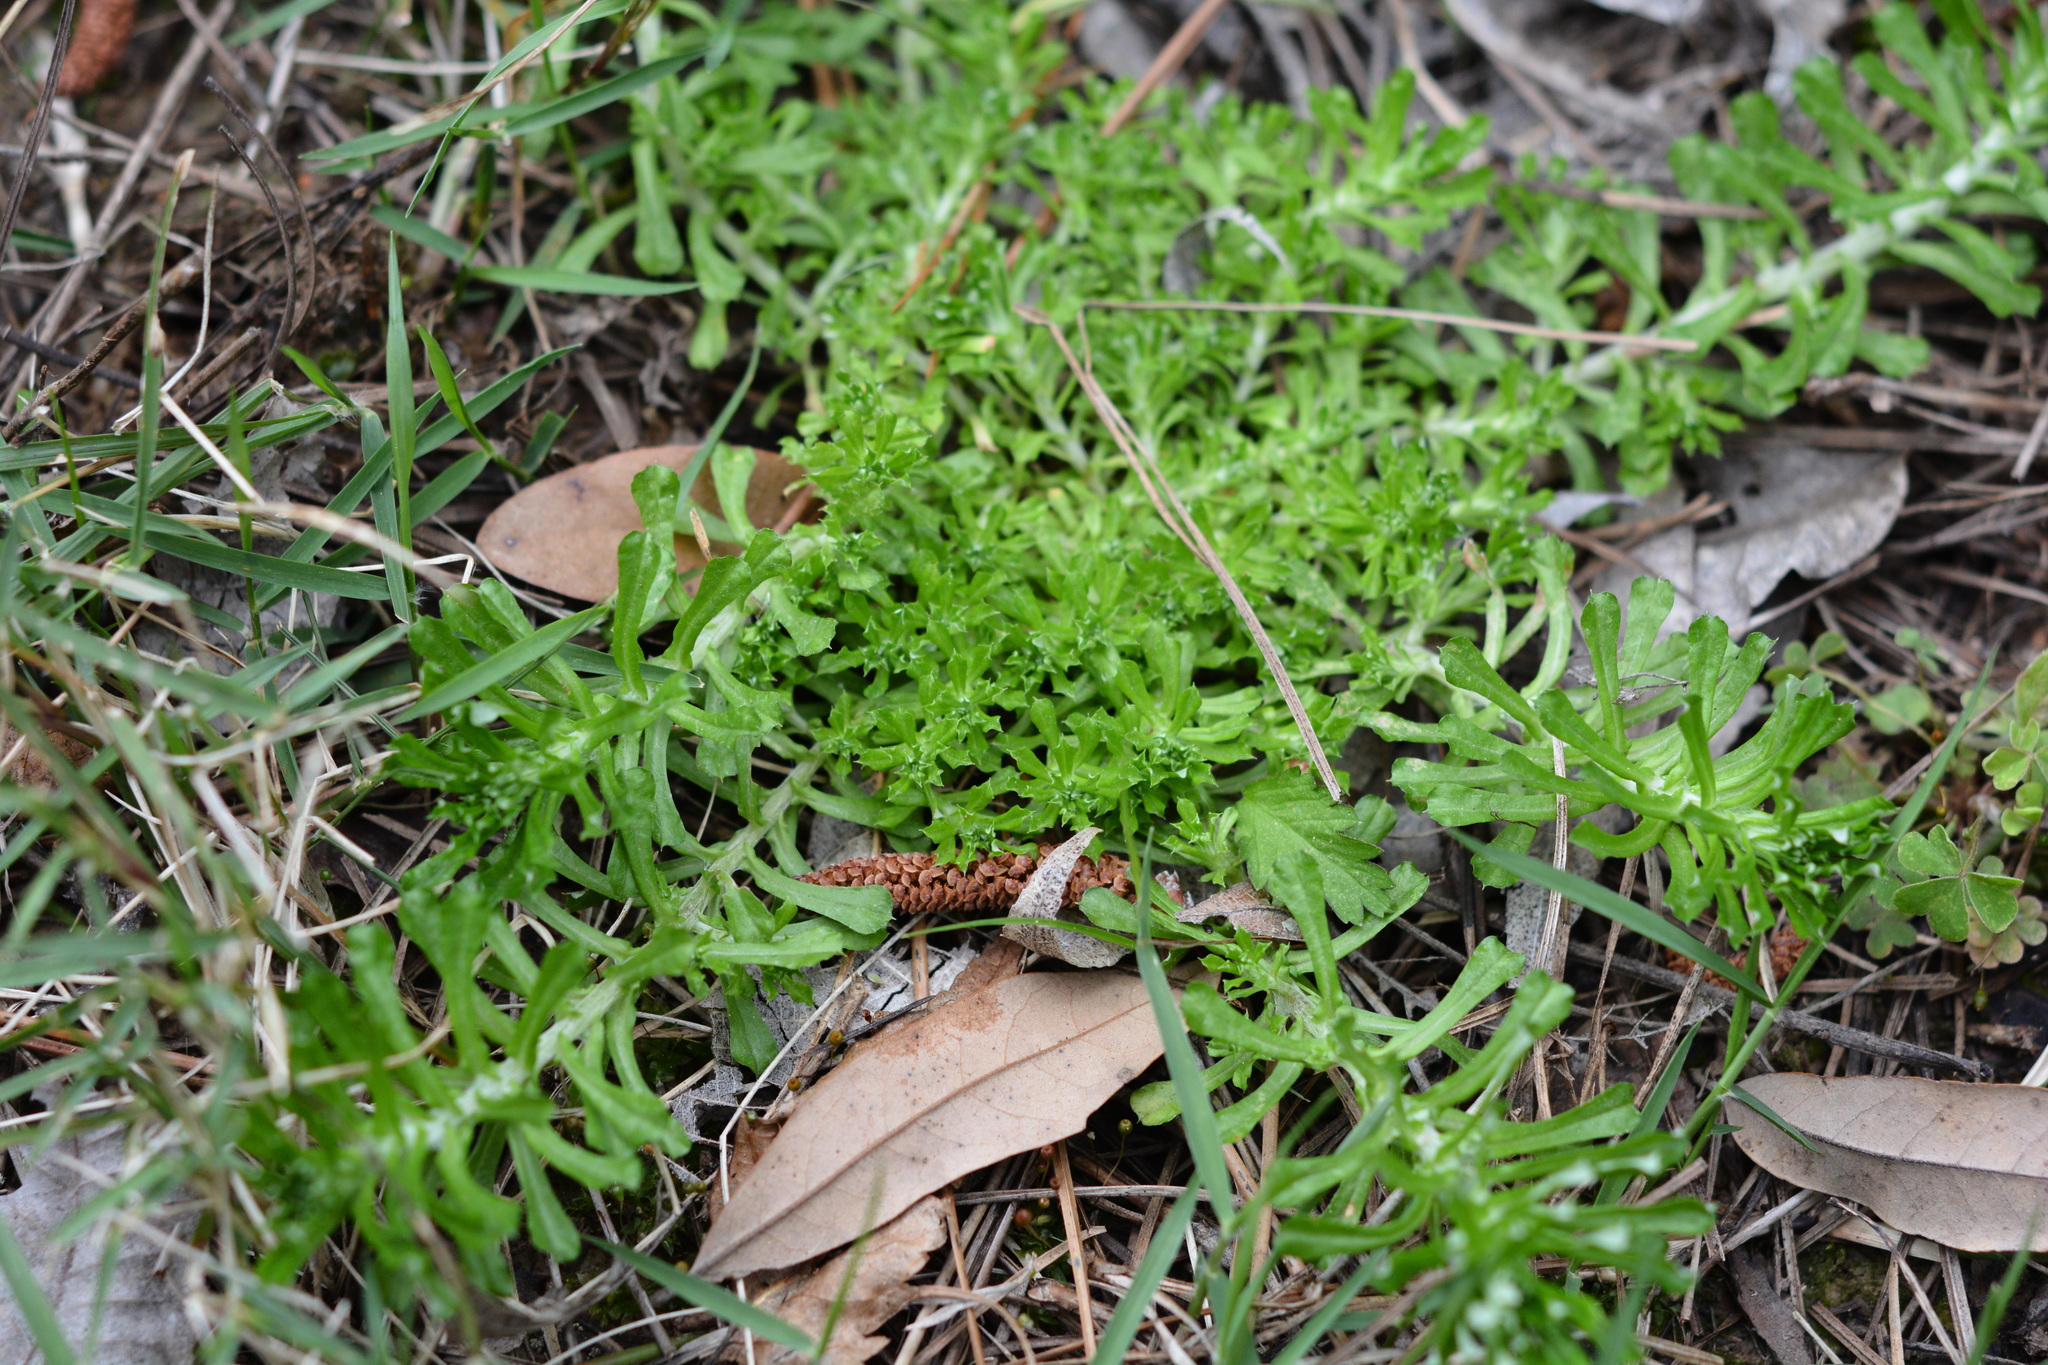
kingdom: Plantae
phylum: Tracheophyta
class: Magnoliopsida
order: Asterales
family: Asteraceae
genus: Facelis
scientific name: Facelis retusa
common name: Annual trampweed
